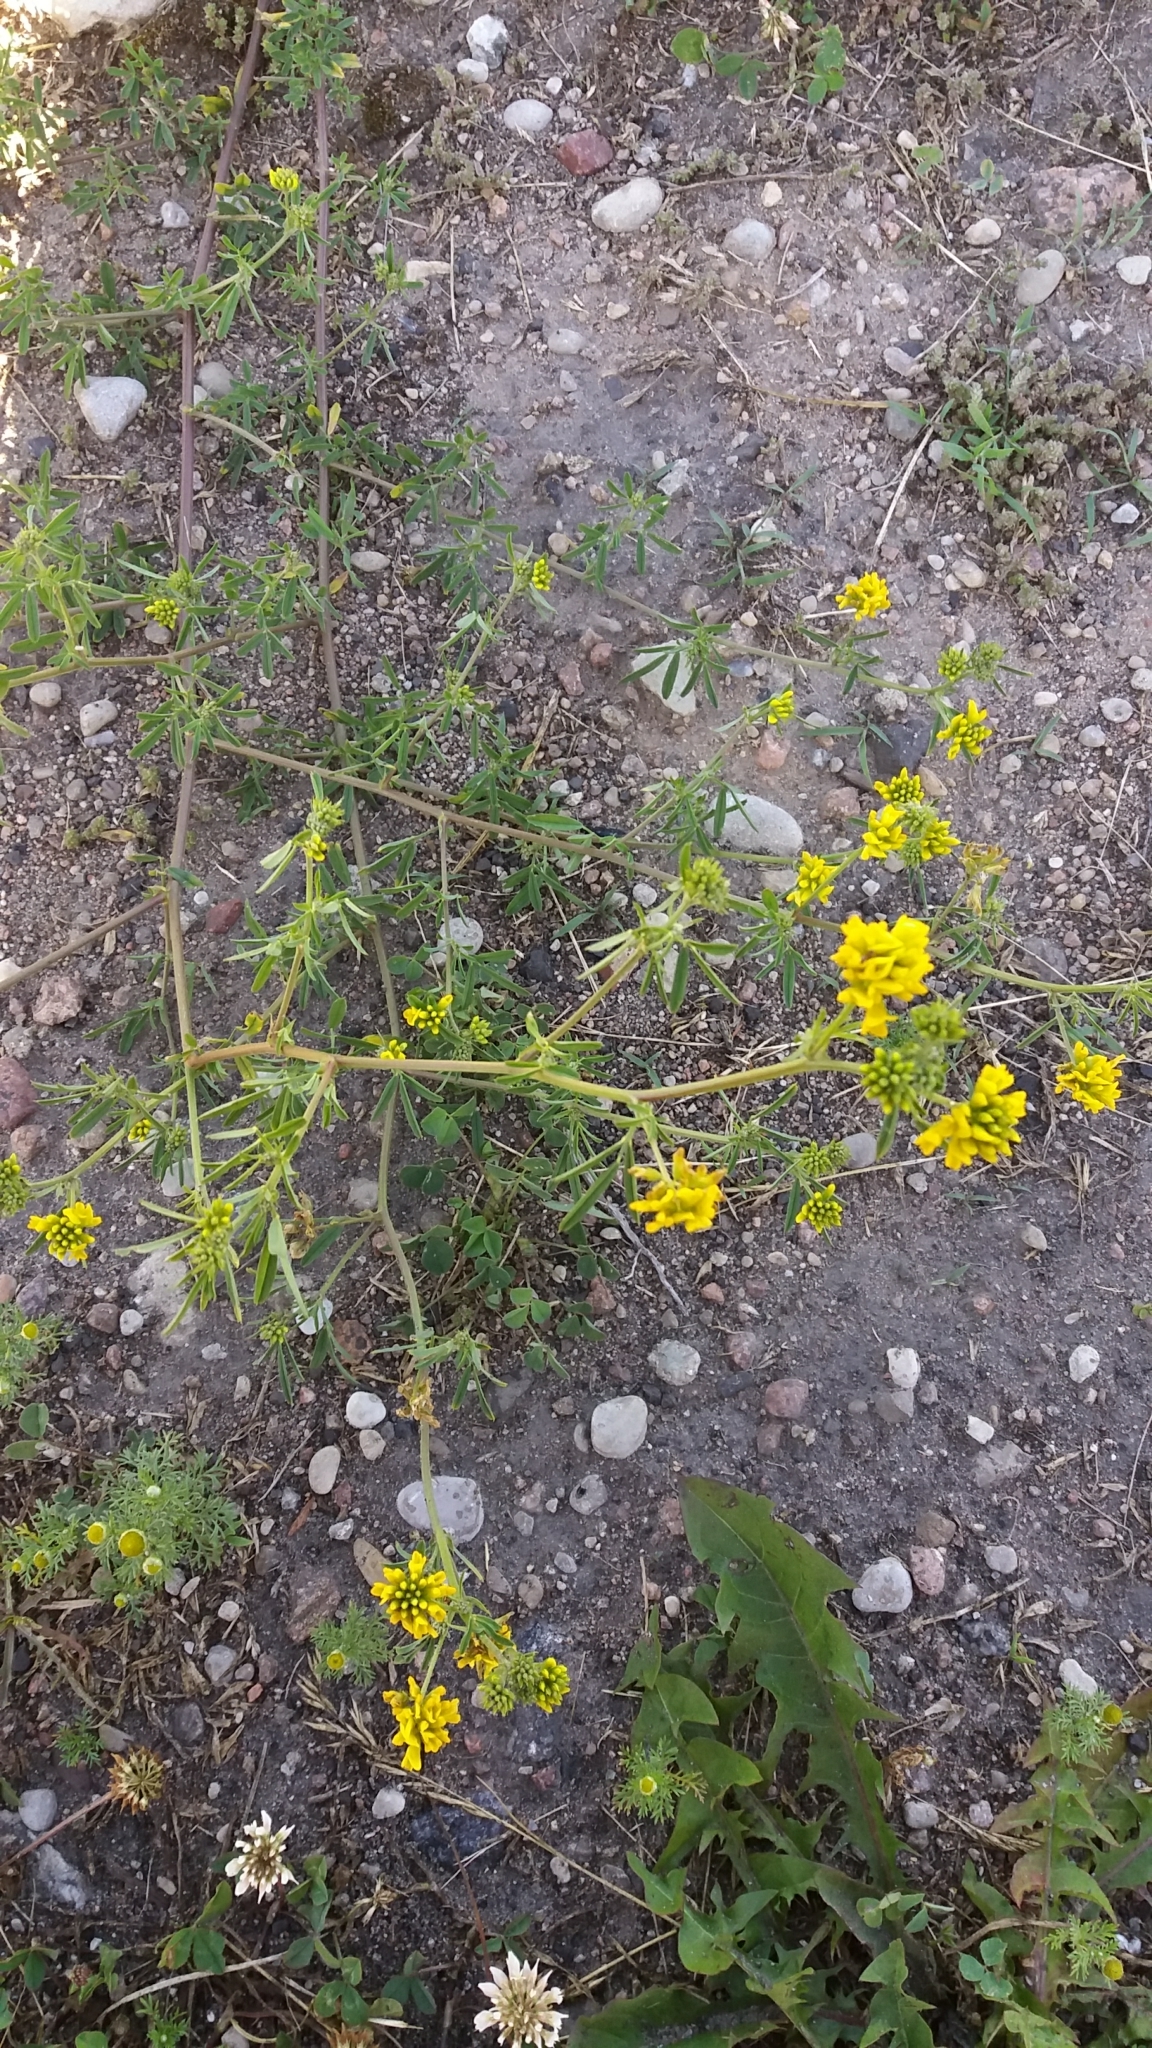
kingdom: Plantae
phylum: Tracheophyta
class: Magnoliopsida
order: Fabales
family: Fabaceae
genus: Medicago
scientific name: Medicago falcata
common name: Sickle medick
